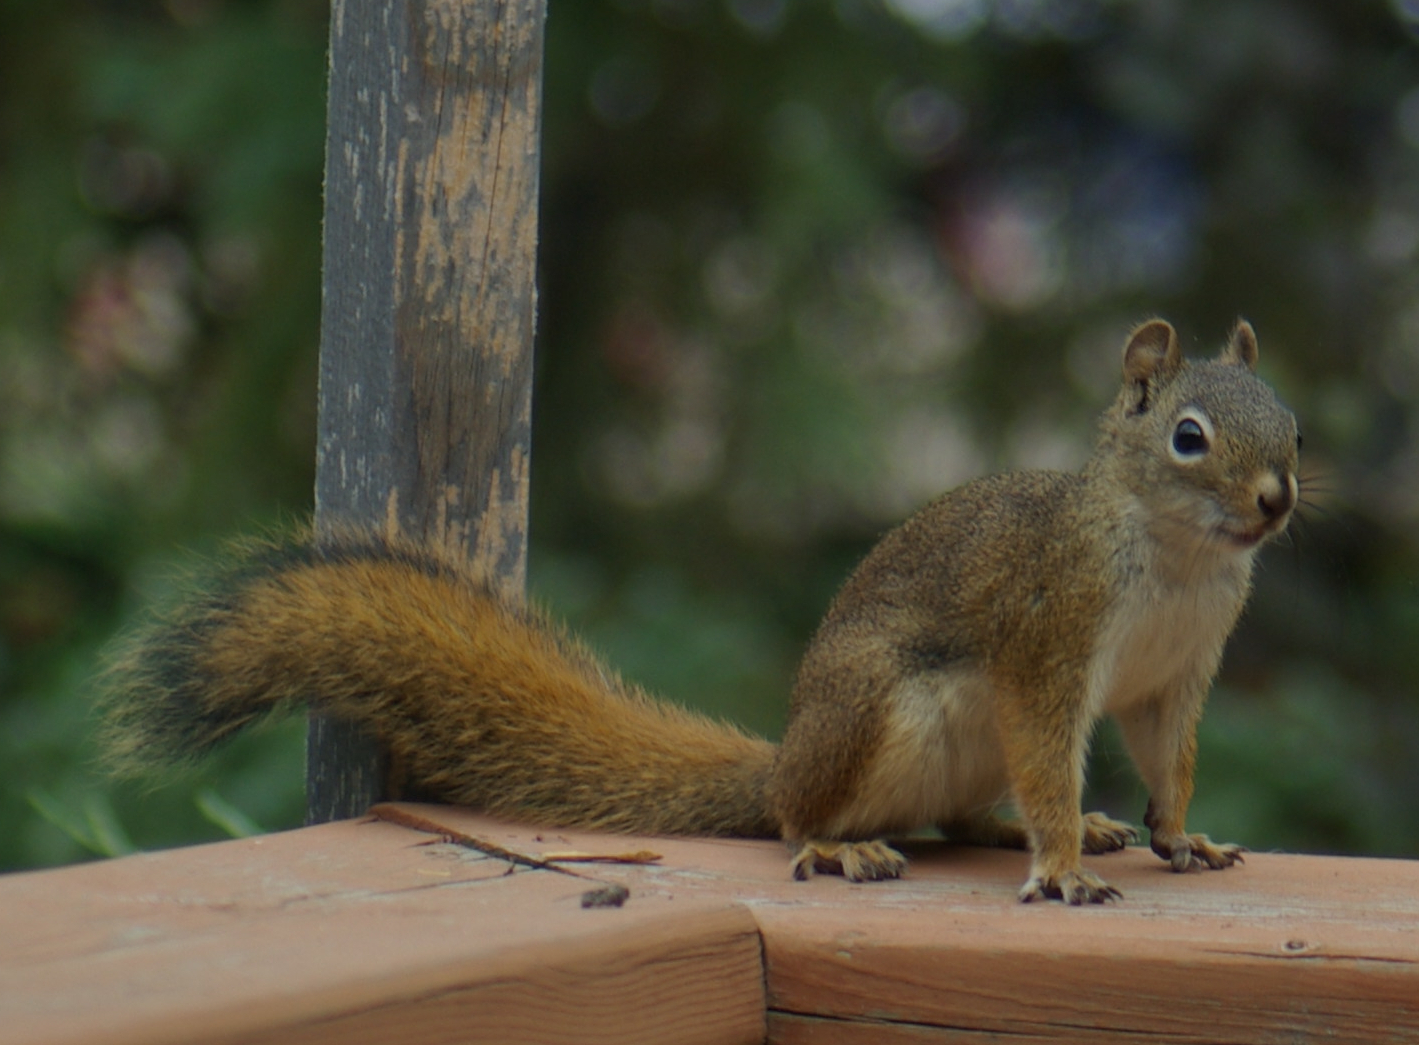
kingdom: Animalia
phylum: Chordata
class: Mammalia
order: Rodentia
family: Sciuridae
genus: Tamiasciurus
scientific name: Tamiasciurus hudsonicus
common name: Red squirrel
